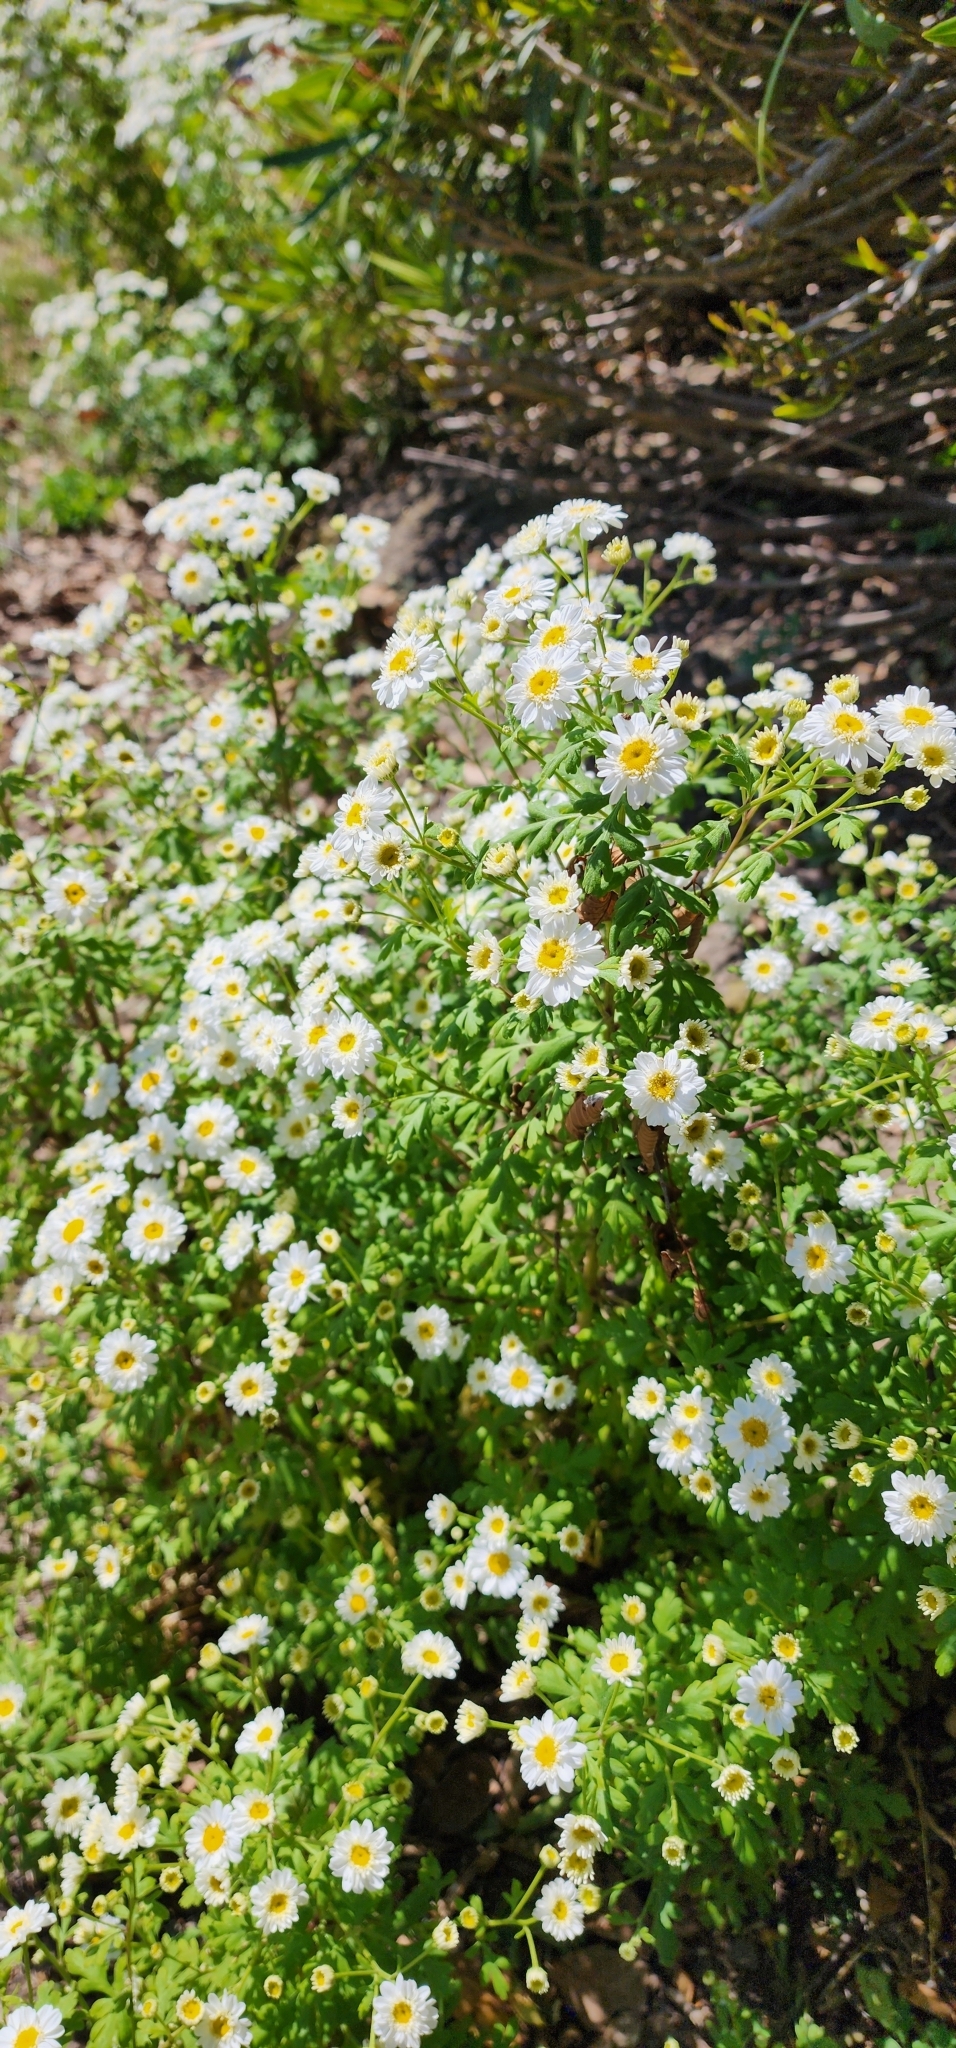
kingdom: Plantae
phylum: Tracheophyta
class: Magnoliopsida
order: Asterales
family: Asteraceae
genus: Tanacetum
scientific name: Tanacetum parthenium
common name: Feverfew
